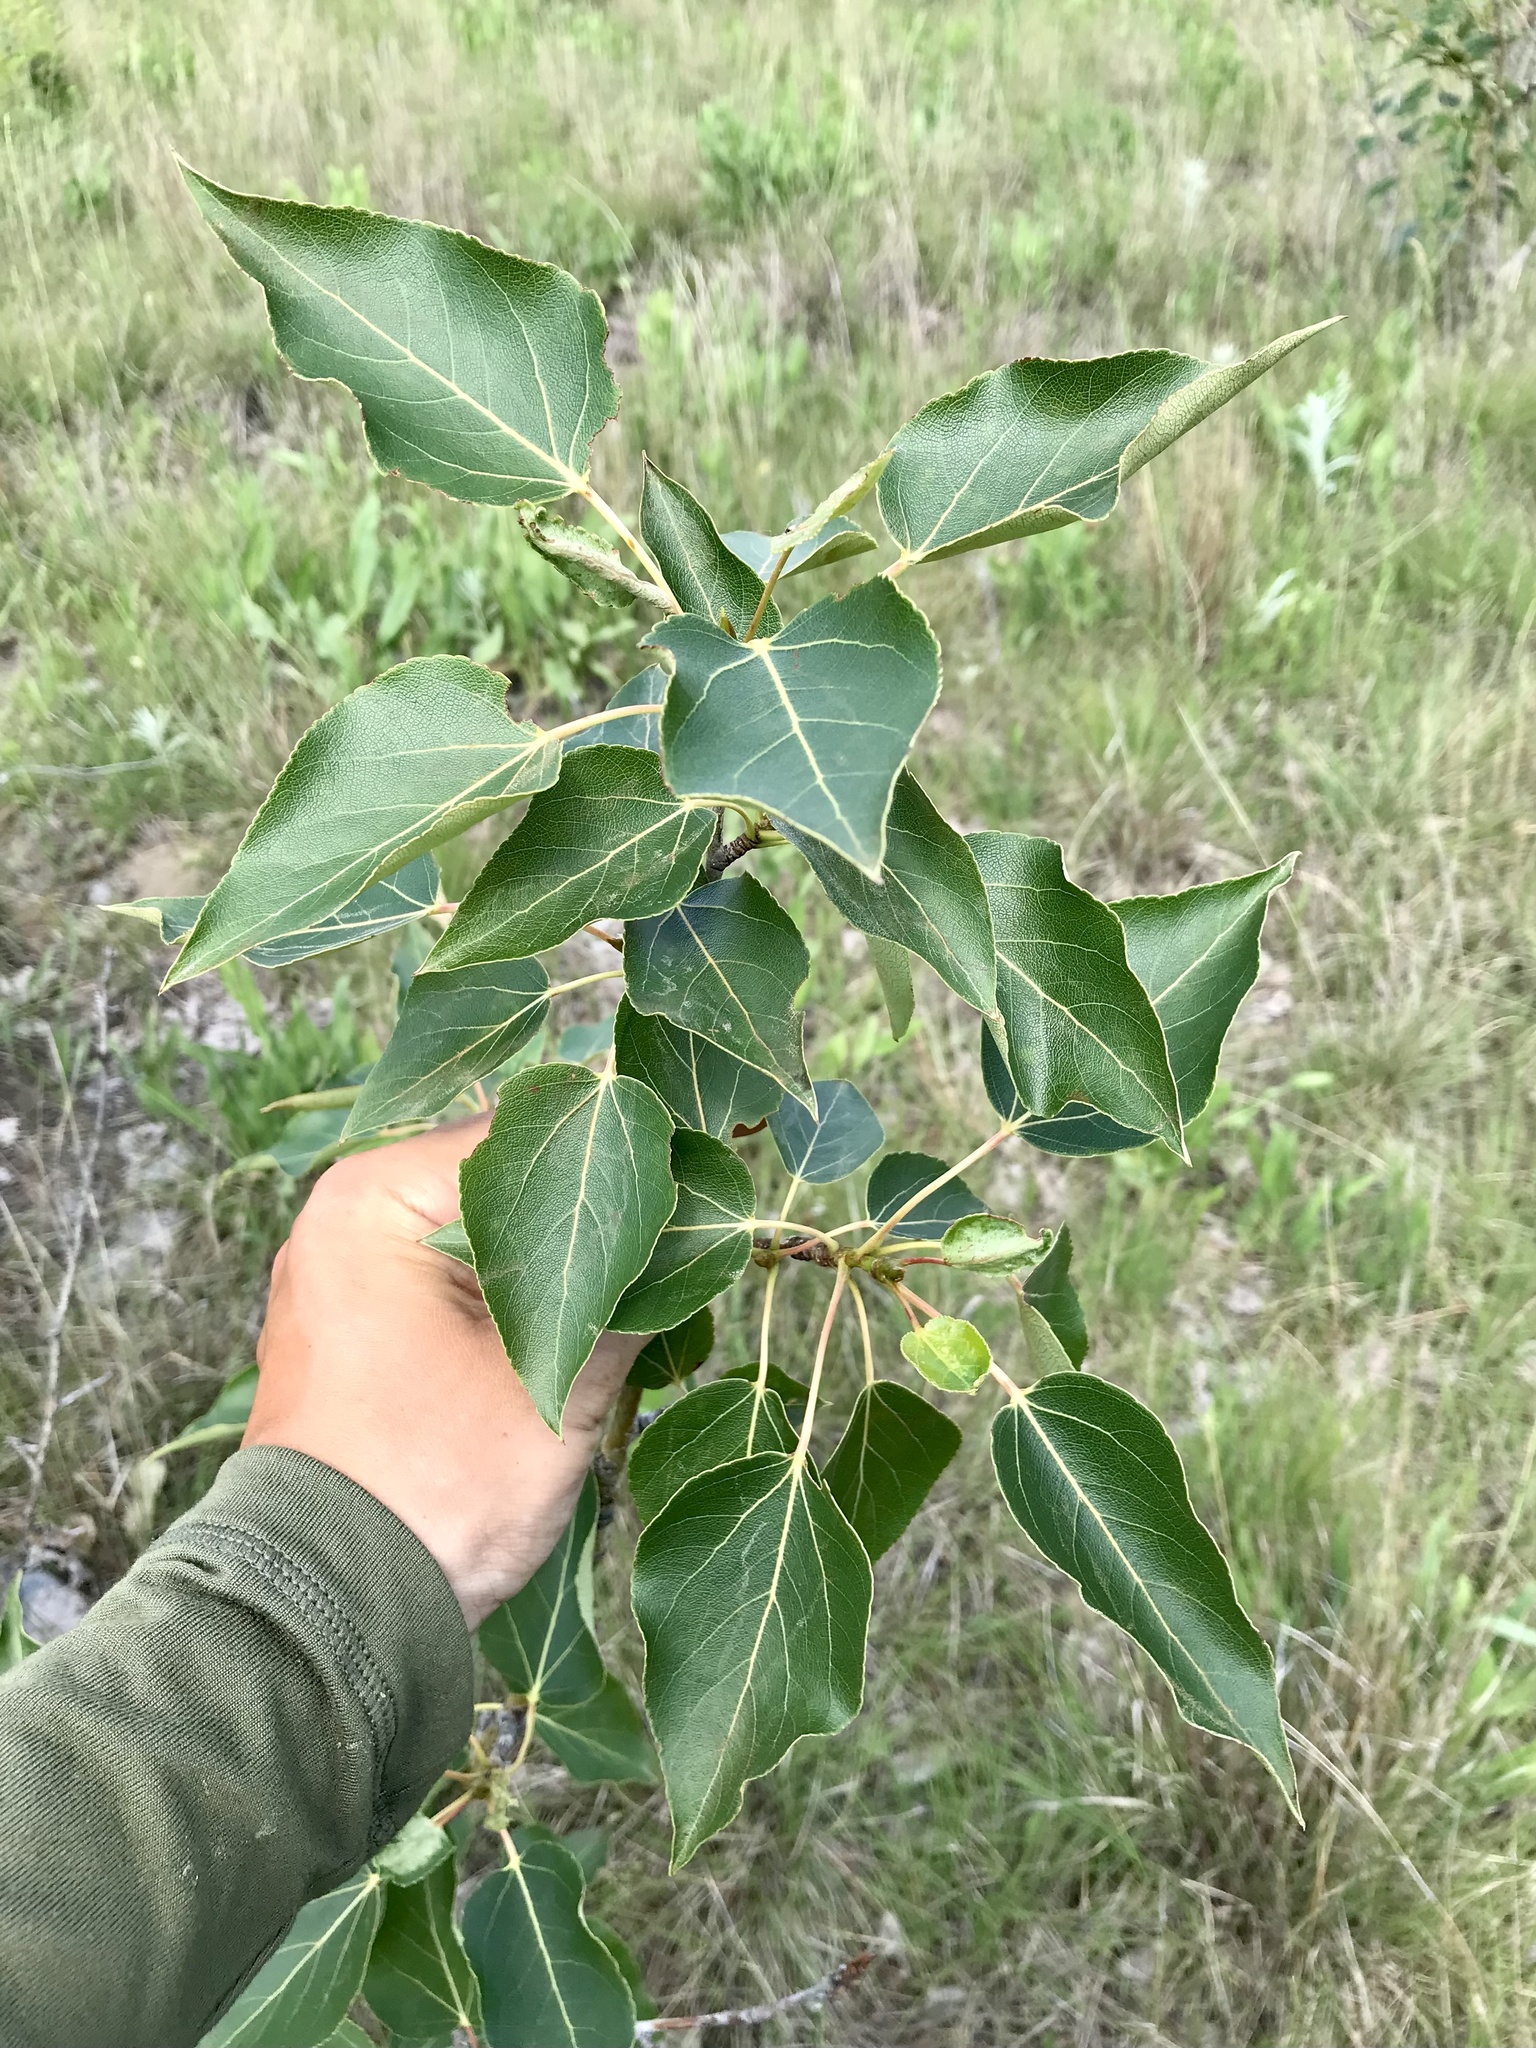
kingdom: Plantae
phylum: Tracheophyta
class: Magnoliopsida
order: Malpighiales
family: Salicaceae
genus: Populus
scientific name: Populus balsamifera
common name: Balsam poplar
